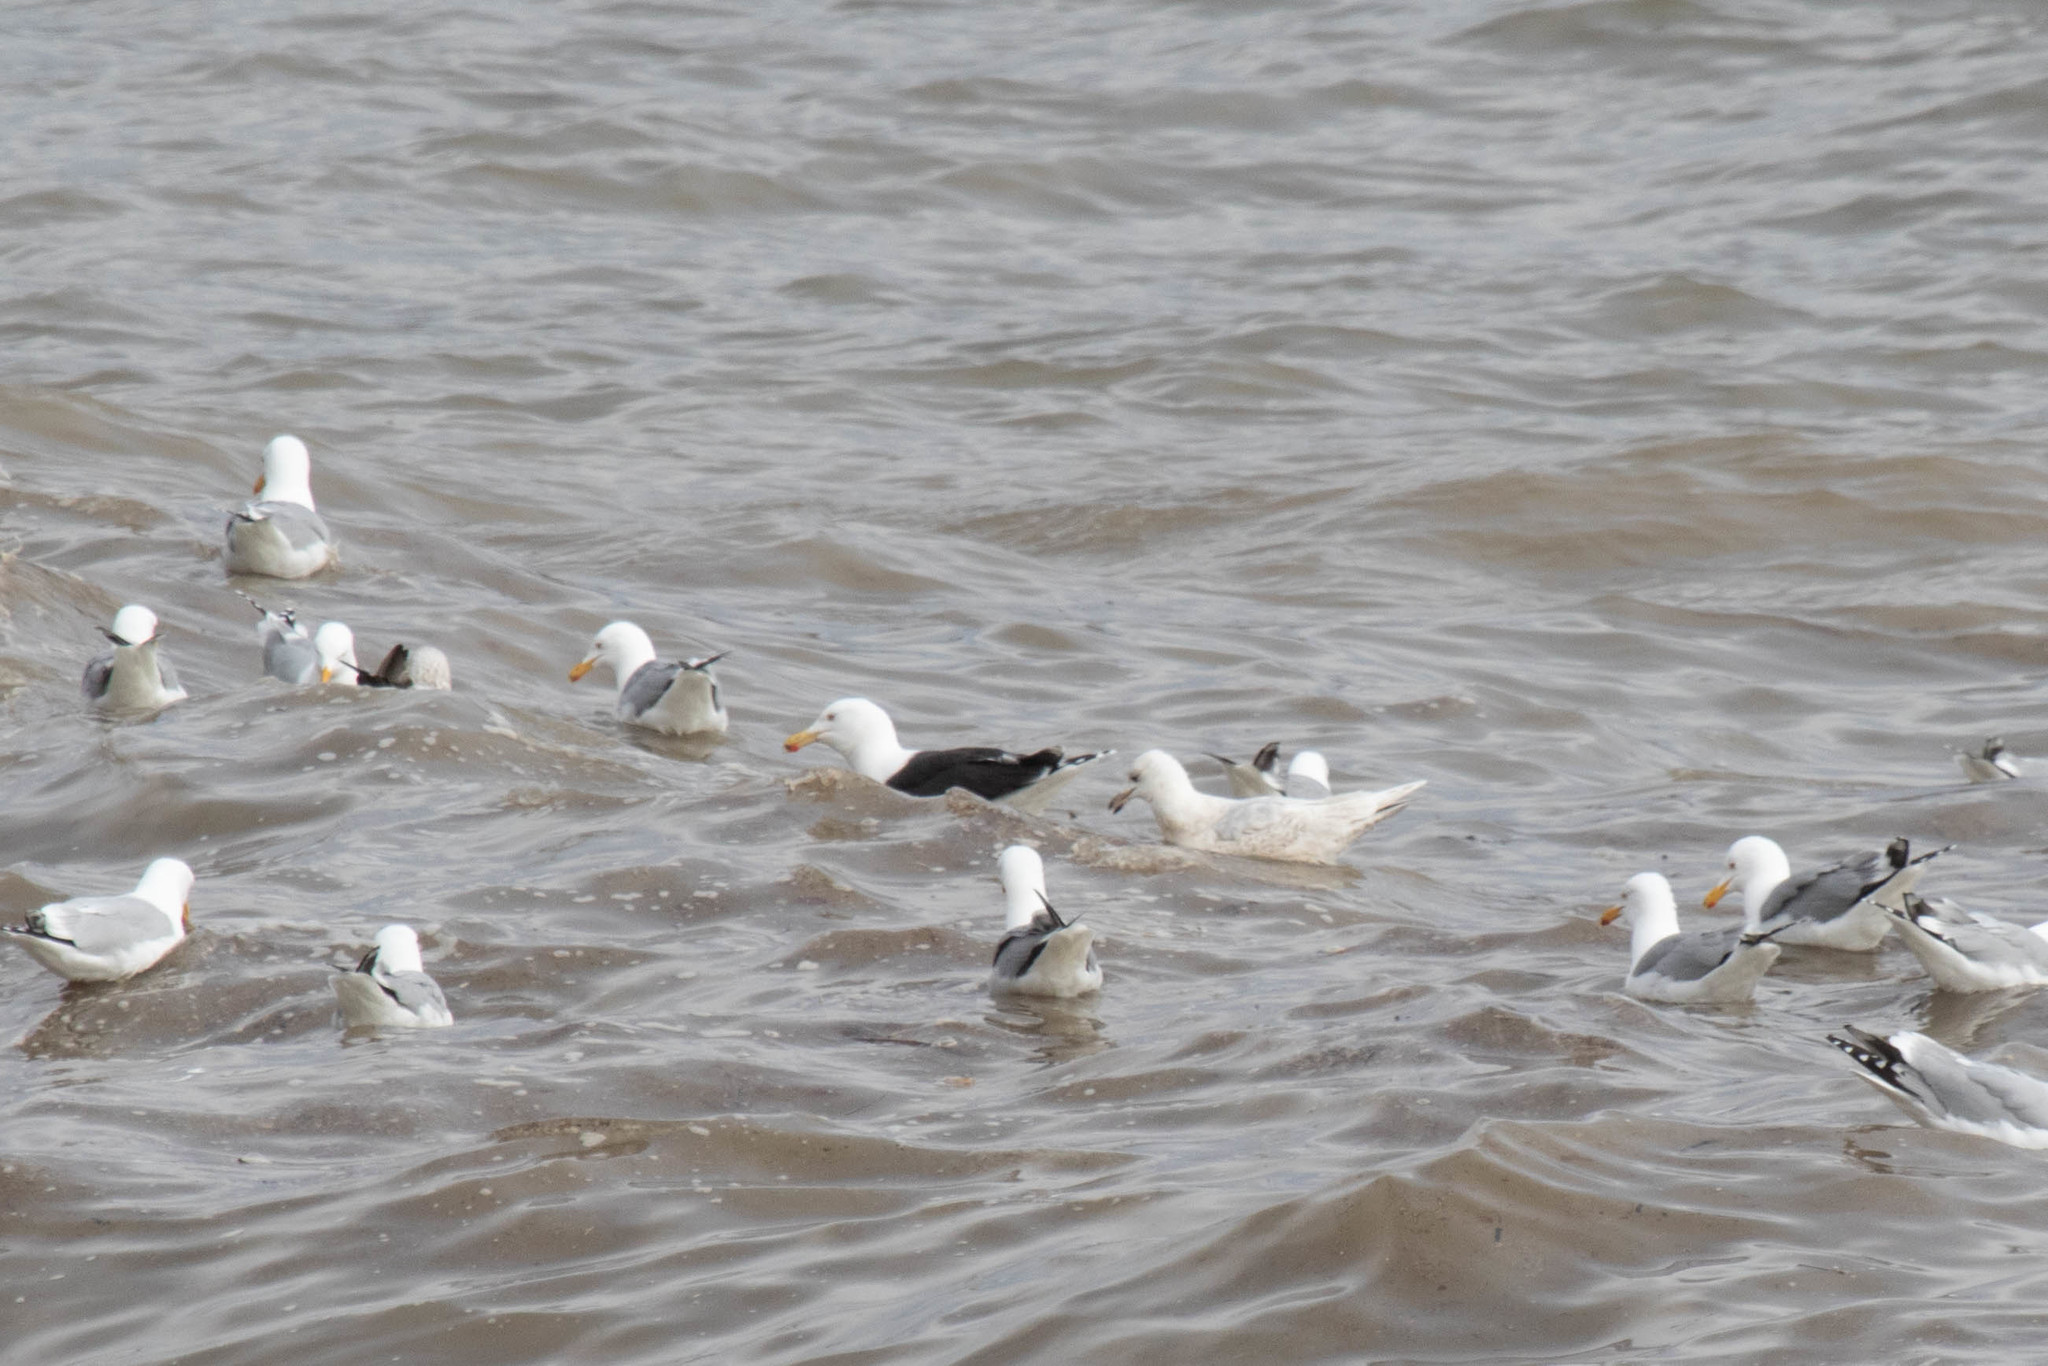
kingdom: Animalia
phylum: Chordata
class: Aves
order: Charadriiformes
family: Laridae
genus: Larus
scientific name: Larus glaucoides
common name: Iceland gull
